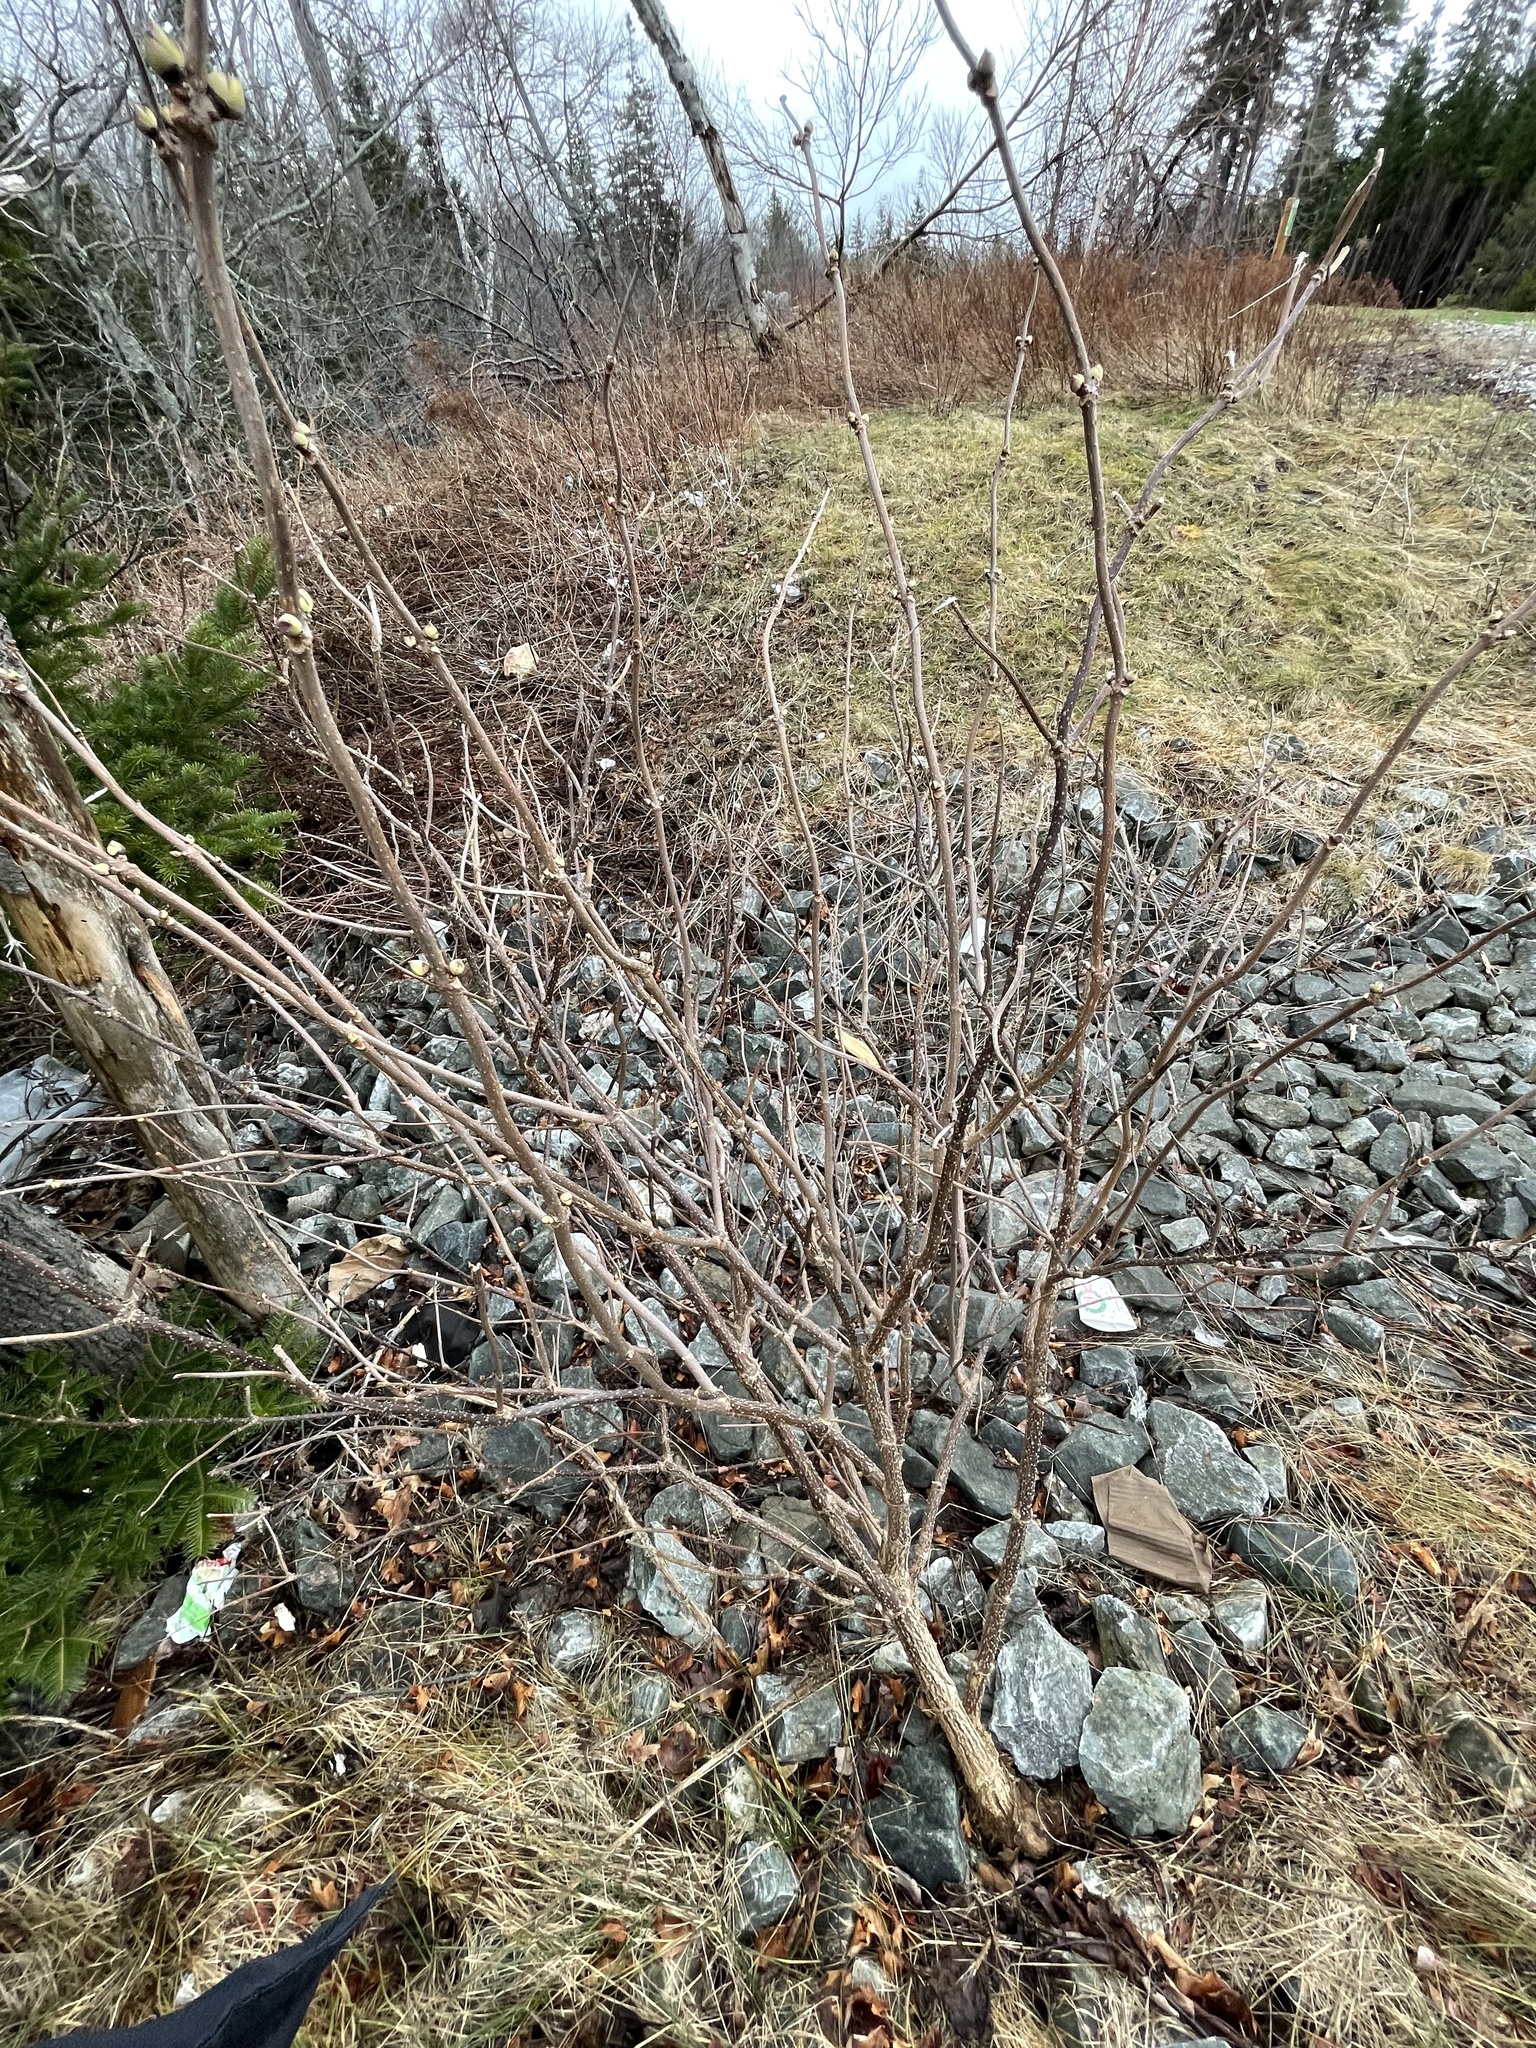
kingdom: Plantae
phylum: Tracheophyta
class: Magnoliopsida
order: Dipsacales
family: Viburnaceae
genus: Sambucus
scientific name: Sambucus racemosa
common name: Red-berried elder
